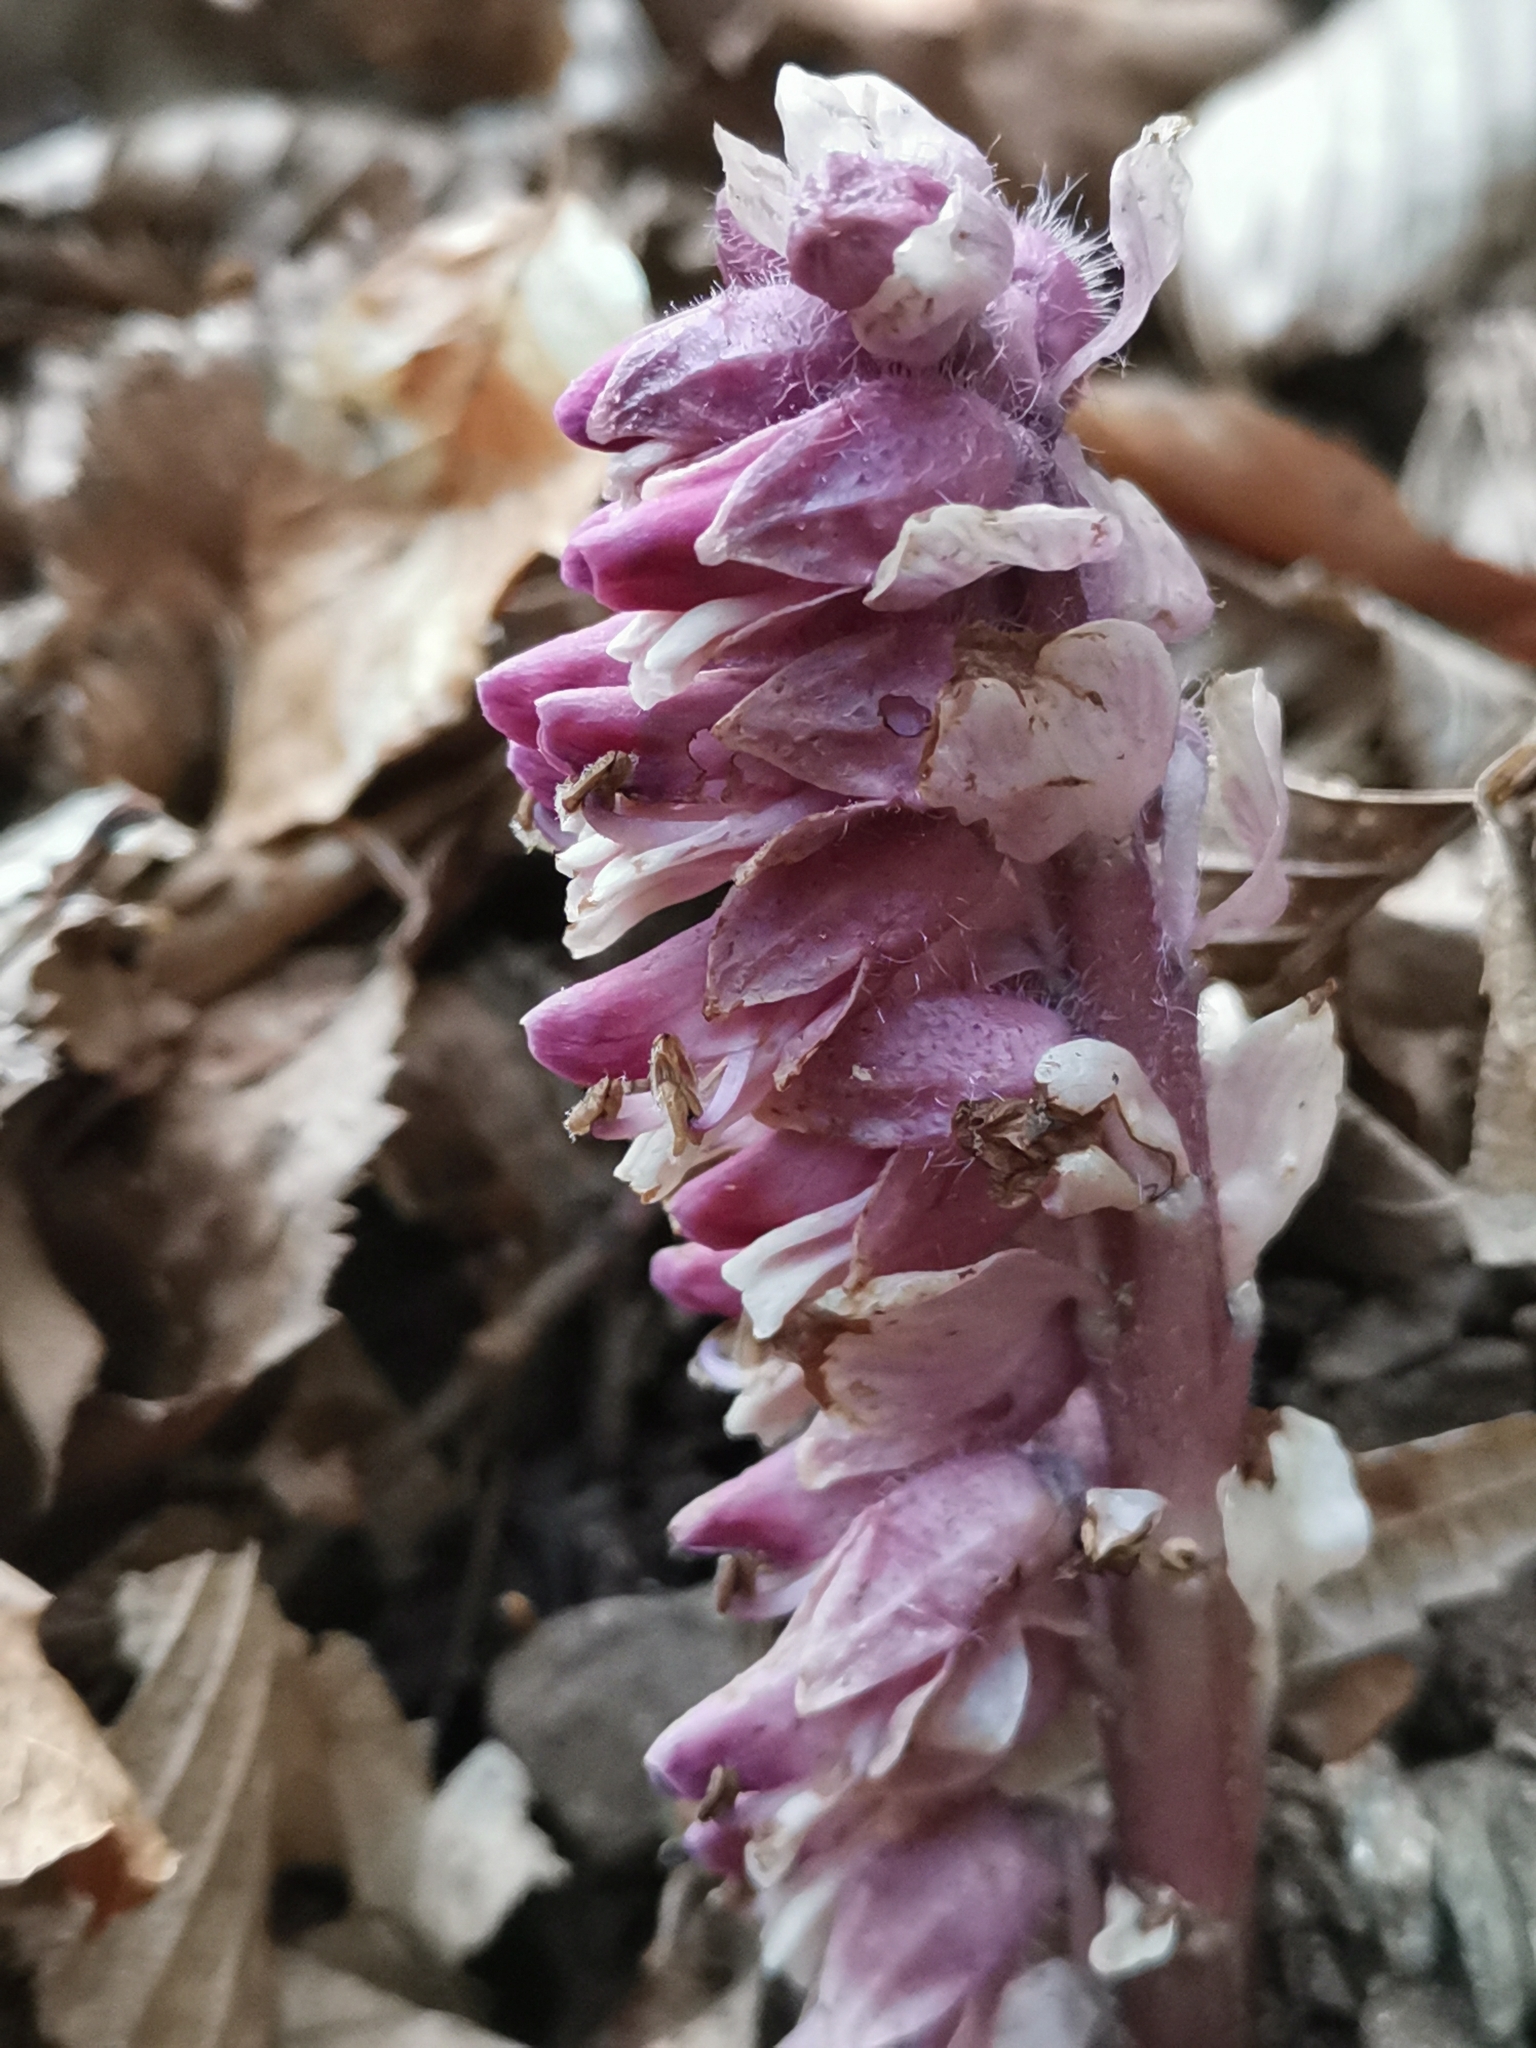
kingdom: Plantae
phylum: Tracheophyta
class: Magnoliopsida
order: Lamiales
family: Orobanchaceae
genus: Lathraea
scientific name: Lathraea squamaria
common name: Toothwort
